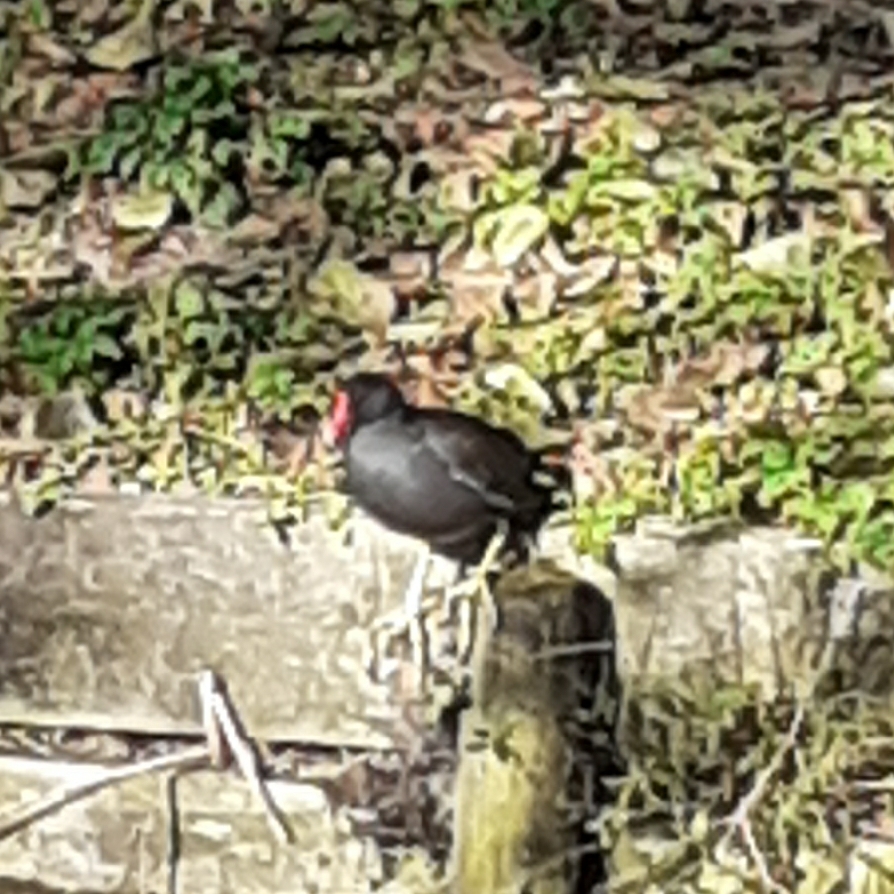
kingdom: Animalia
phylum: Chordata
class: Aves
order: Gruiformes
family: Rallidae
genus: Gallinula
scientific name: Gallinula chloropus
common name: Common moorhen
